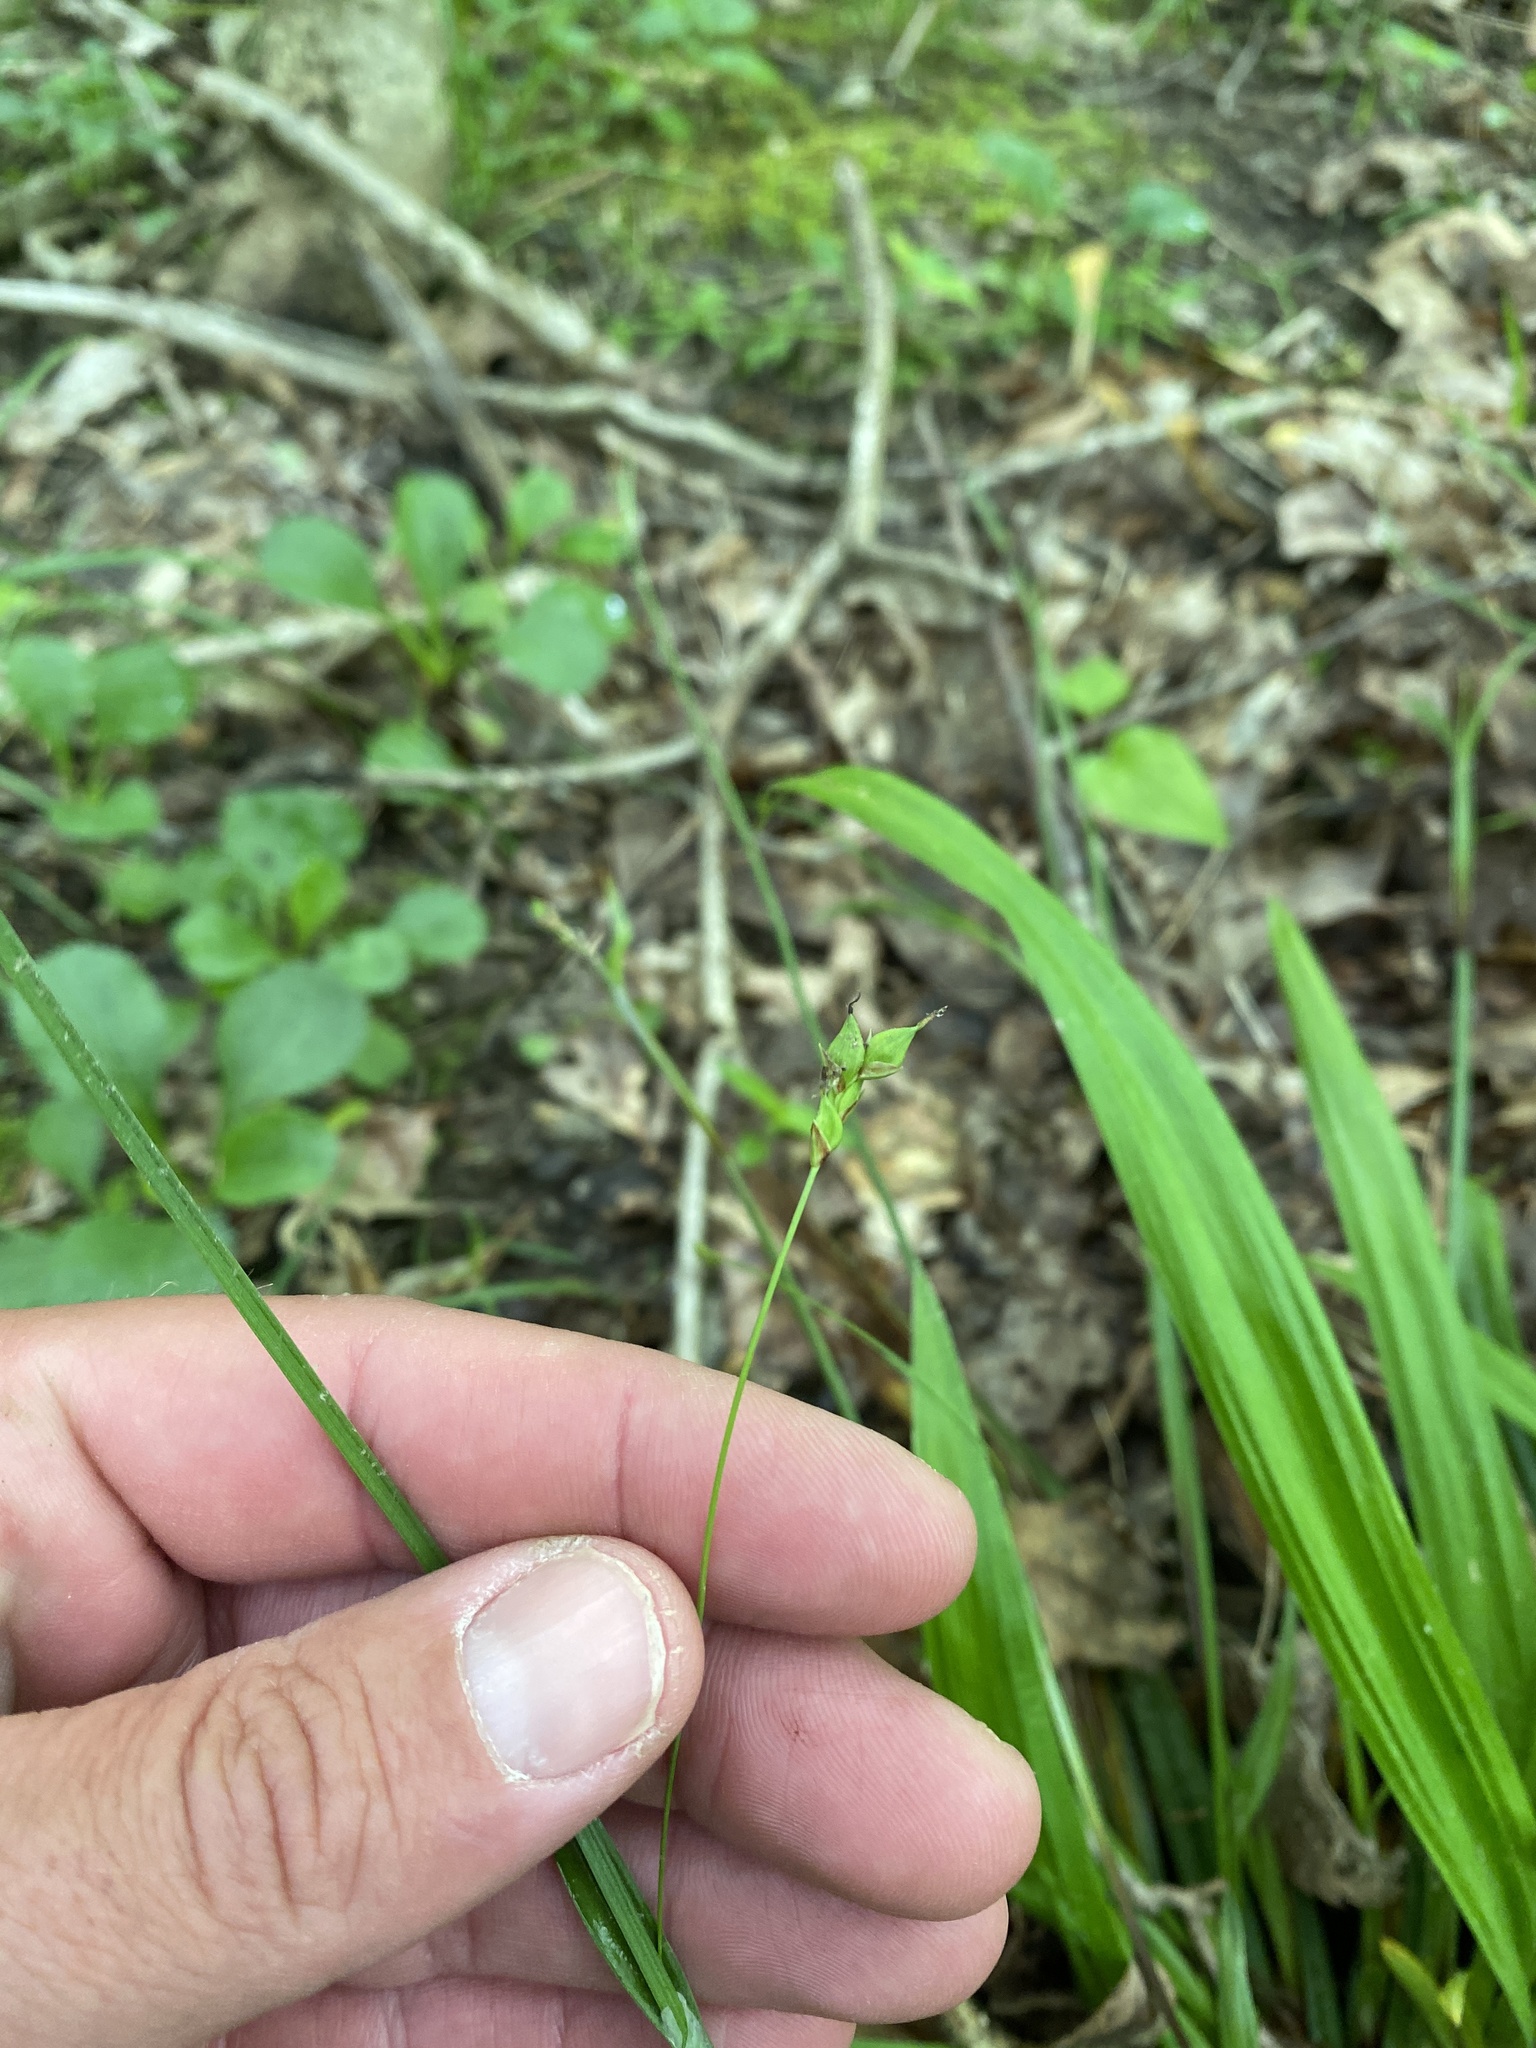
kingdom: Plantae
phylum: Tracheophyta
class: Liliopsida
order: Poales
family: Cyperaceae
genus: Carex
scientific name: Carex careyana
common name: Carey's sedge
